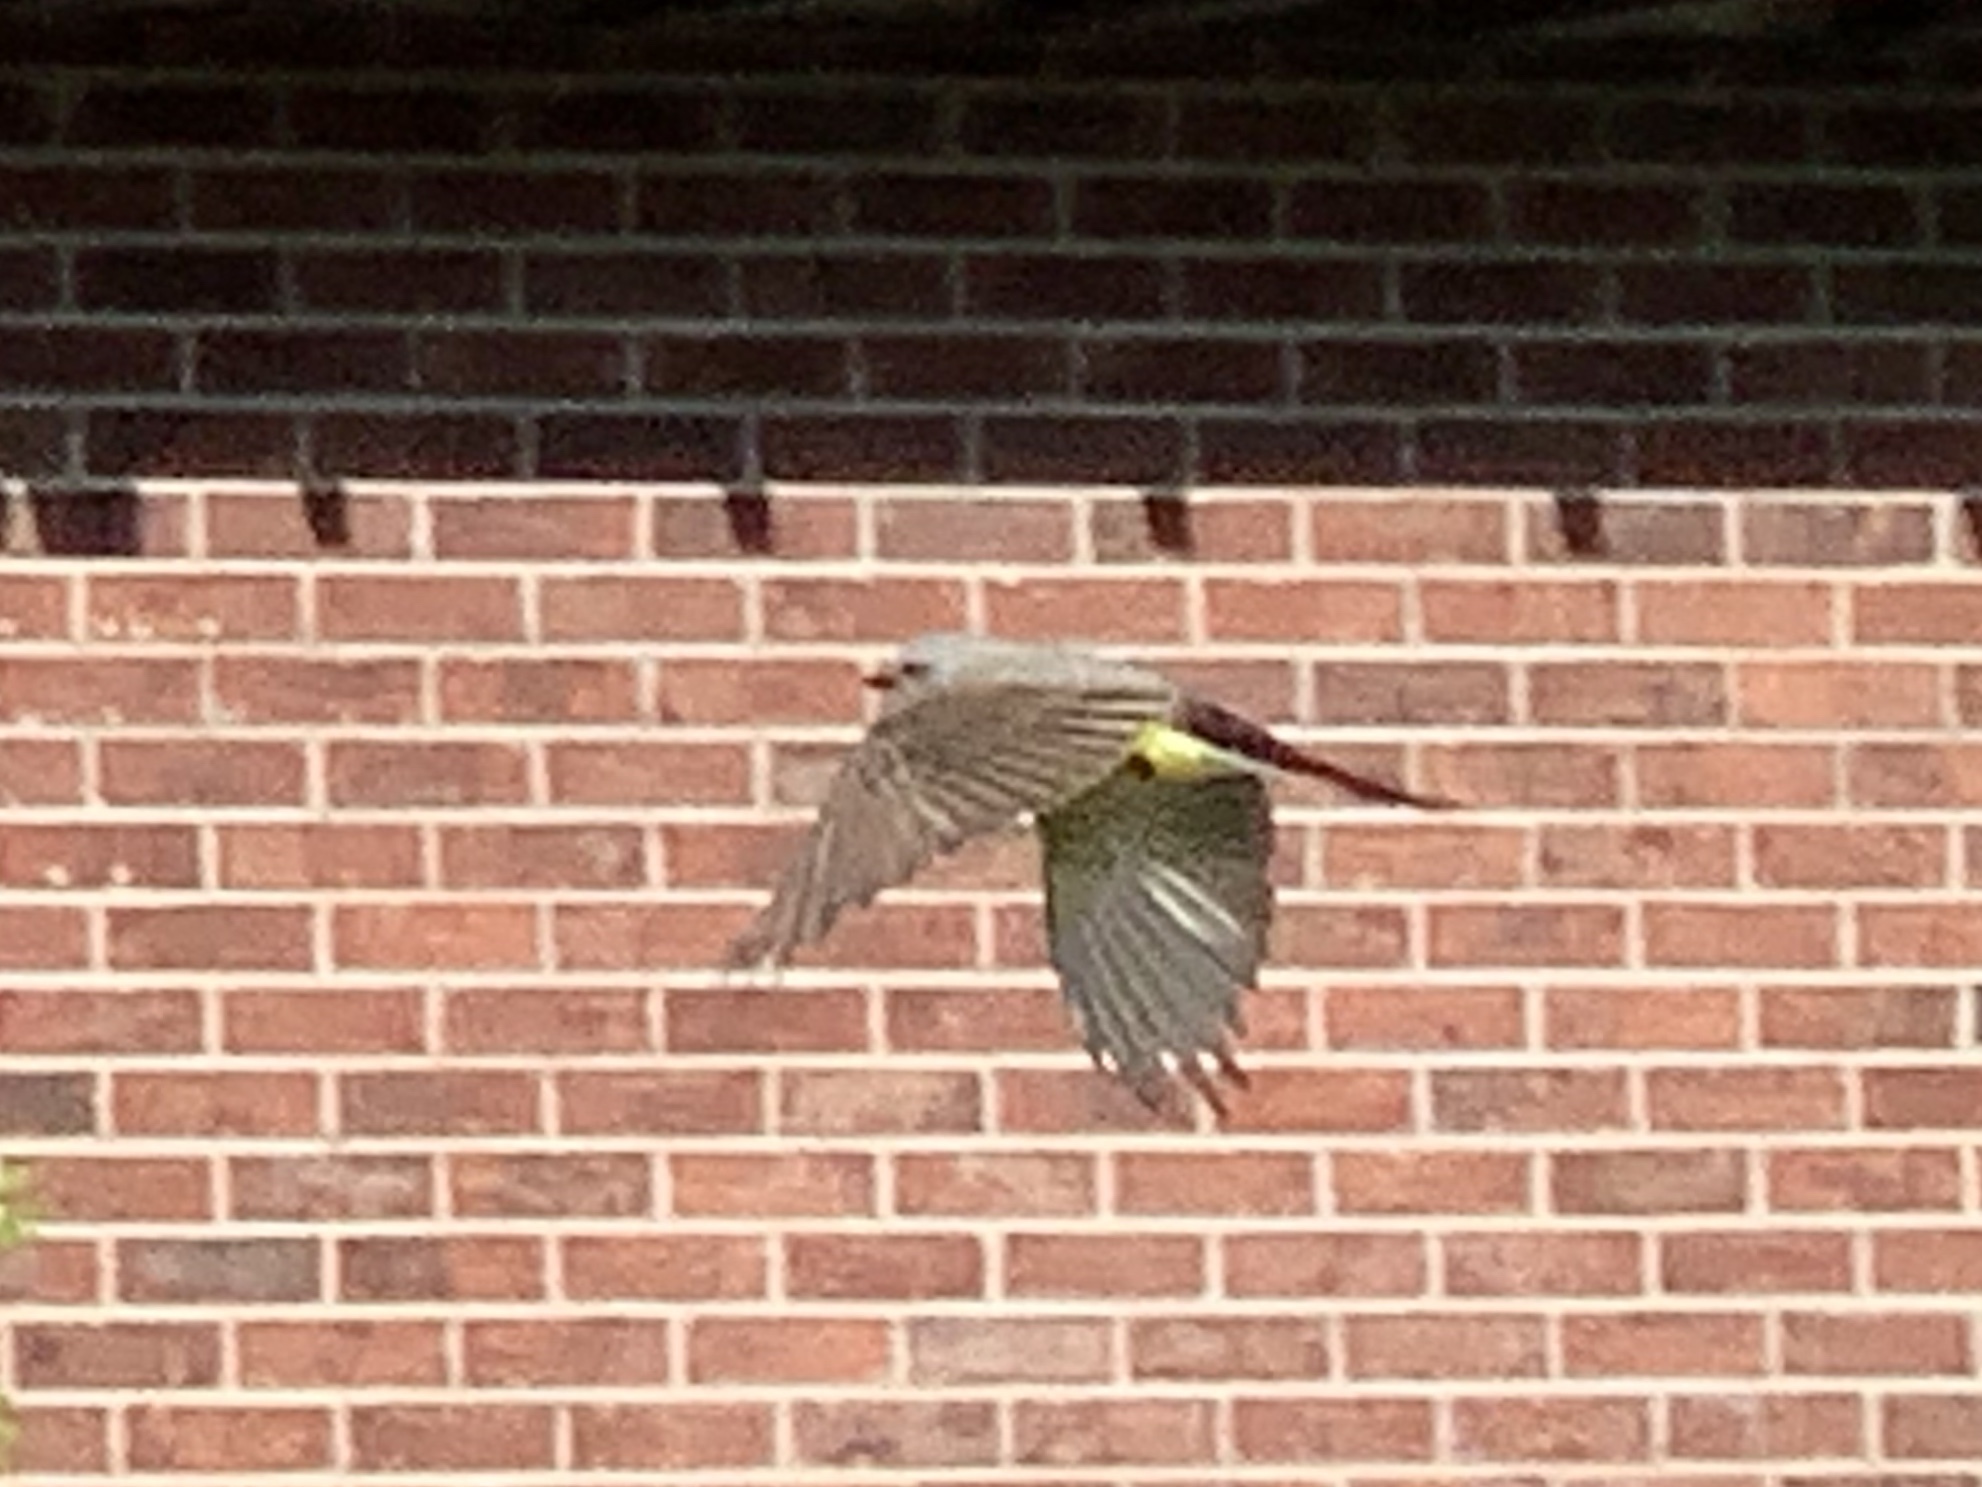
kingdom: Animalia
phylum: Chordata
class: Aves
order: Passeriformes
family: Tyrannidae
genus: Tyrannus
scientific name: Tyrannus verticalis
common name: Western kingbird
